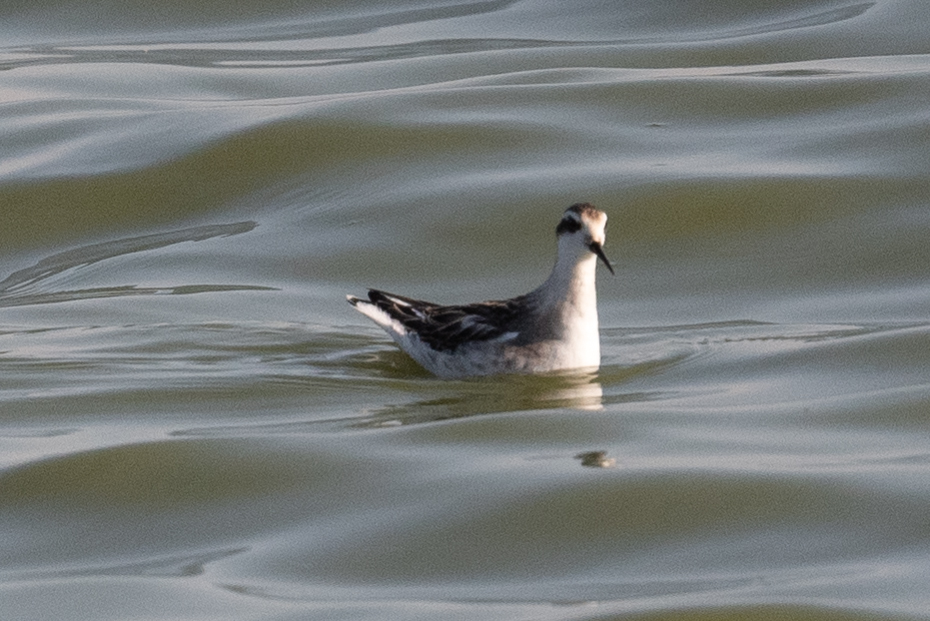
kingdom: Animalia
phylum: Chordata
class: Aves
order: Charadriiformes
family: Scolopacidae
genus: Phalaropus
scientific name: Phalaropus lobatus
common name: Red-necked phalarope
